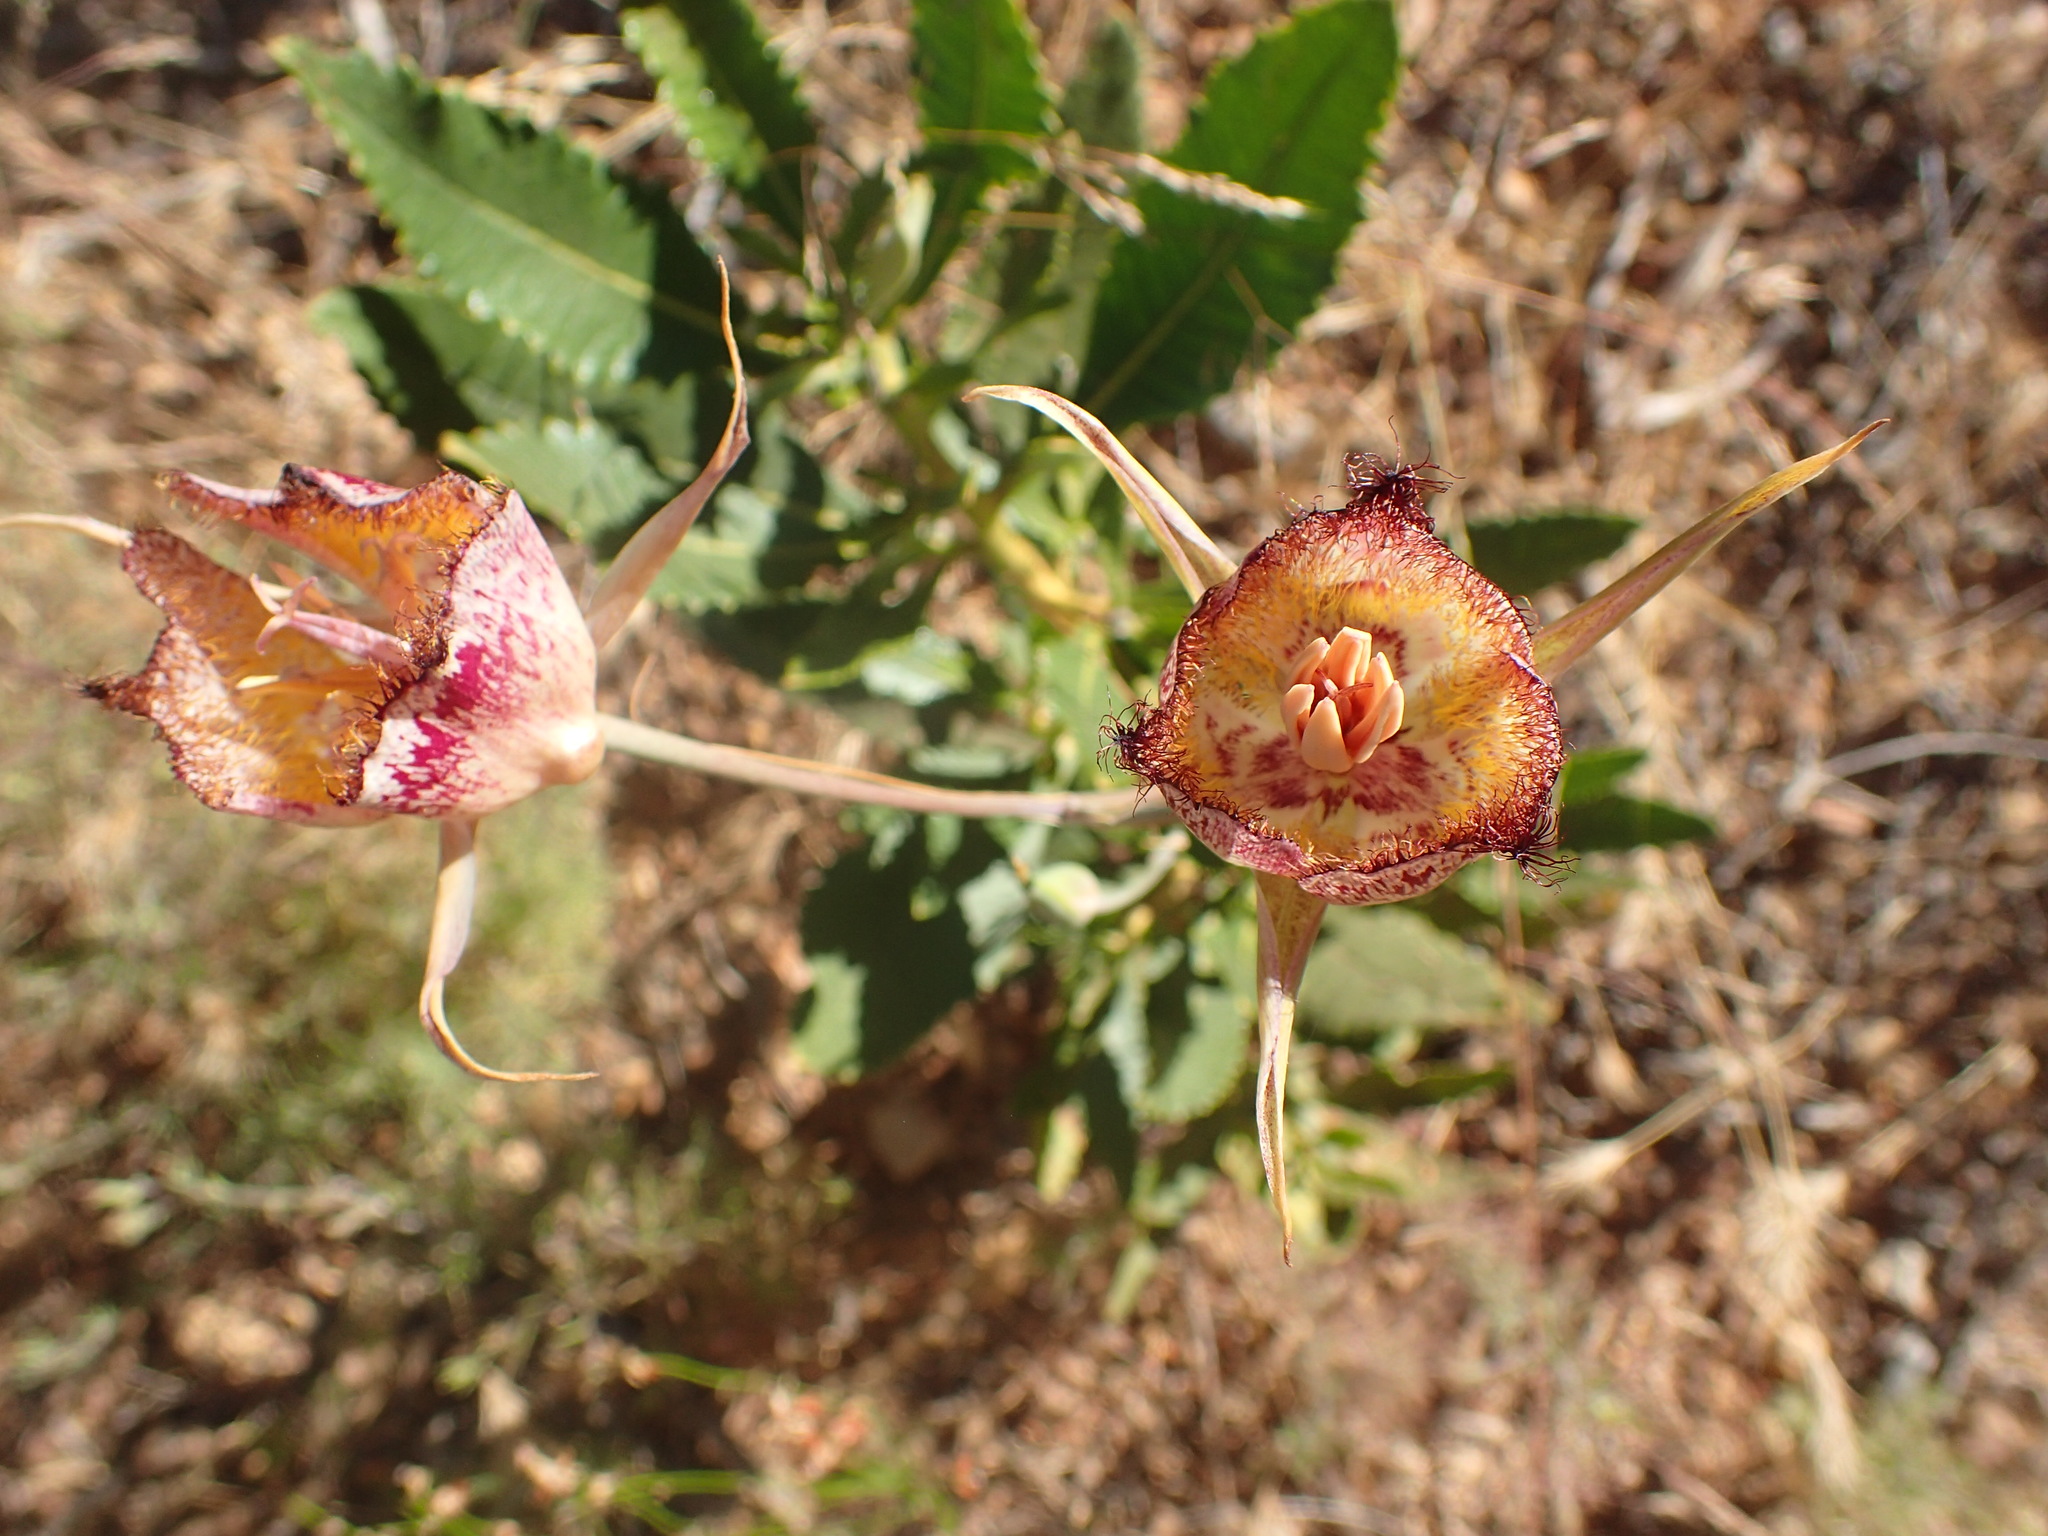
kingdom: Plantae
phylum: Tracheophyta
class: Liliopsida
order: Liliales
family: Liliaceae
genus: Calochortus
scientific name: Calochortus fimbriatus
